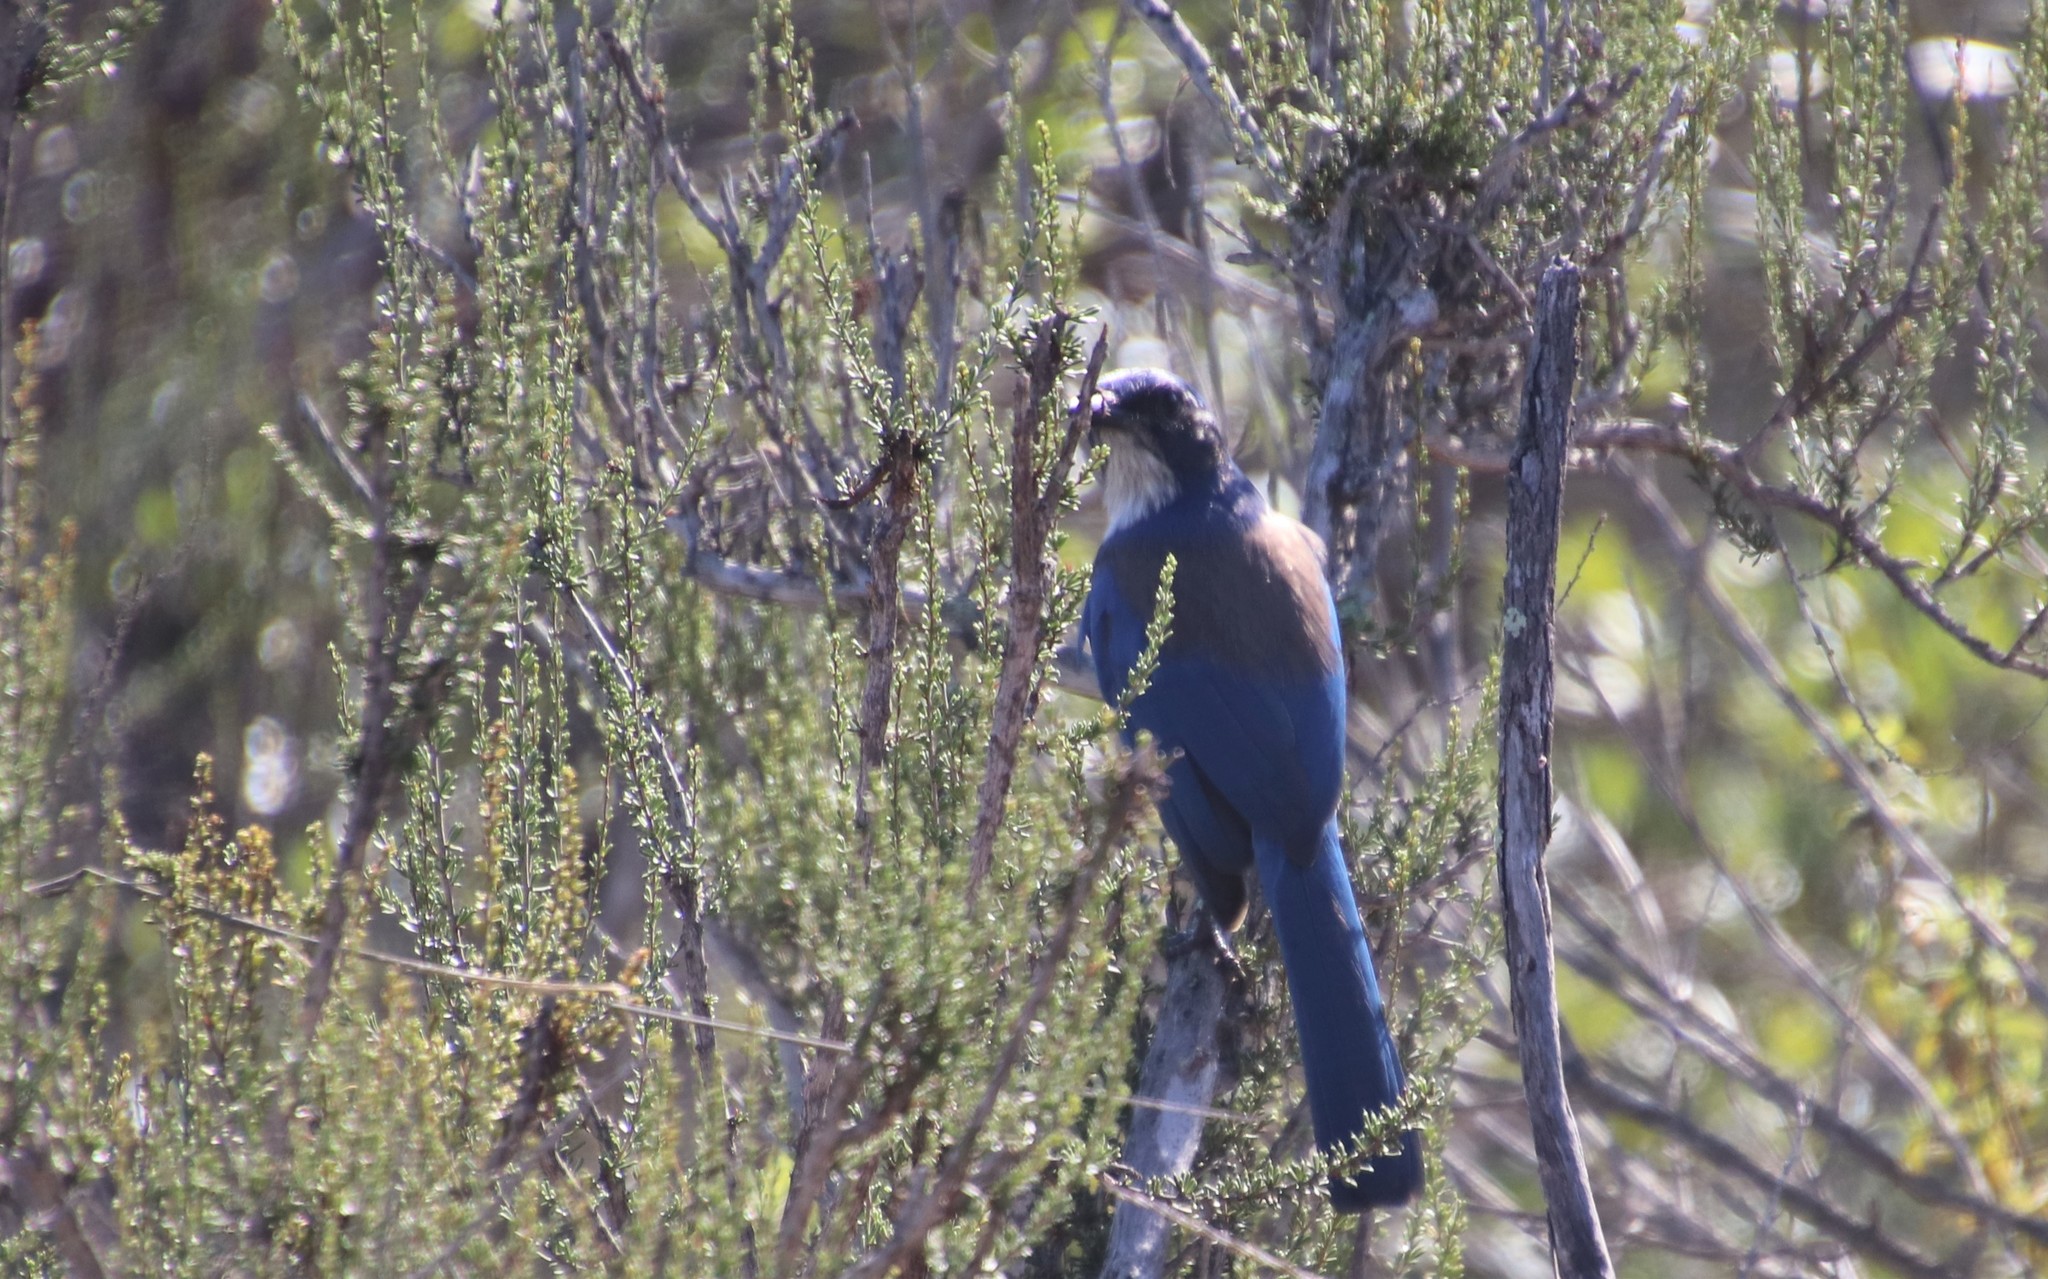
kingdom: Animalia
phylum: Chordata
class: Aves
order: Passeriformes
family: Corvidae
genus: Aphelocoma
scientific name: Aphelocoma californica
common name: California scrub-jay
